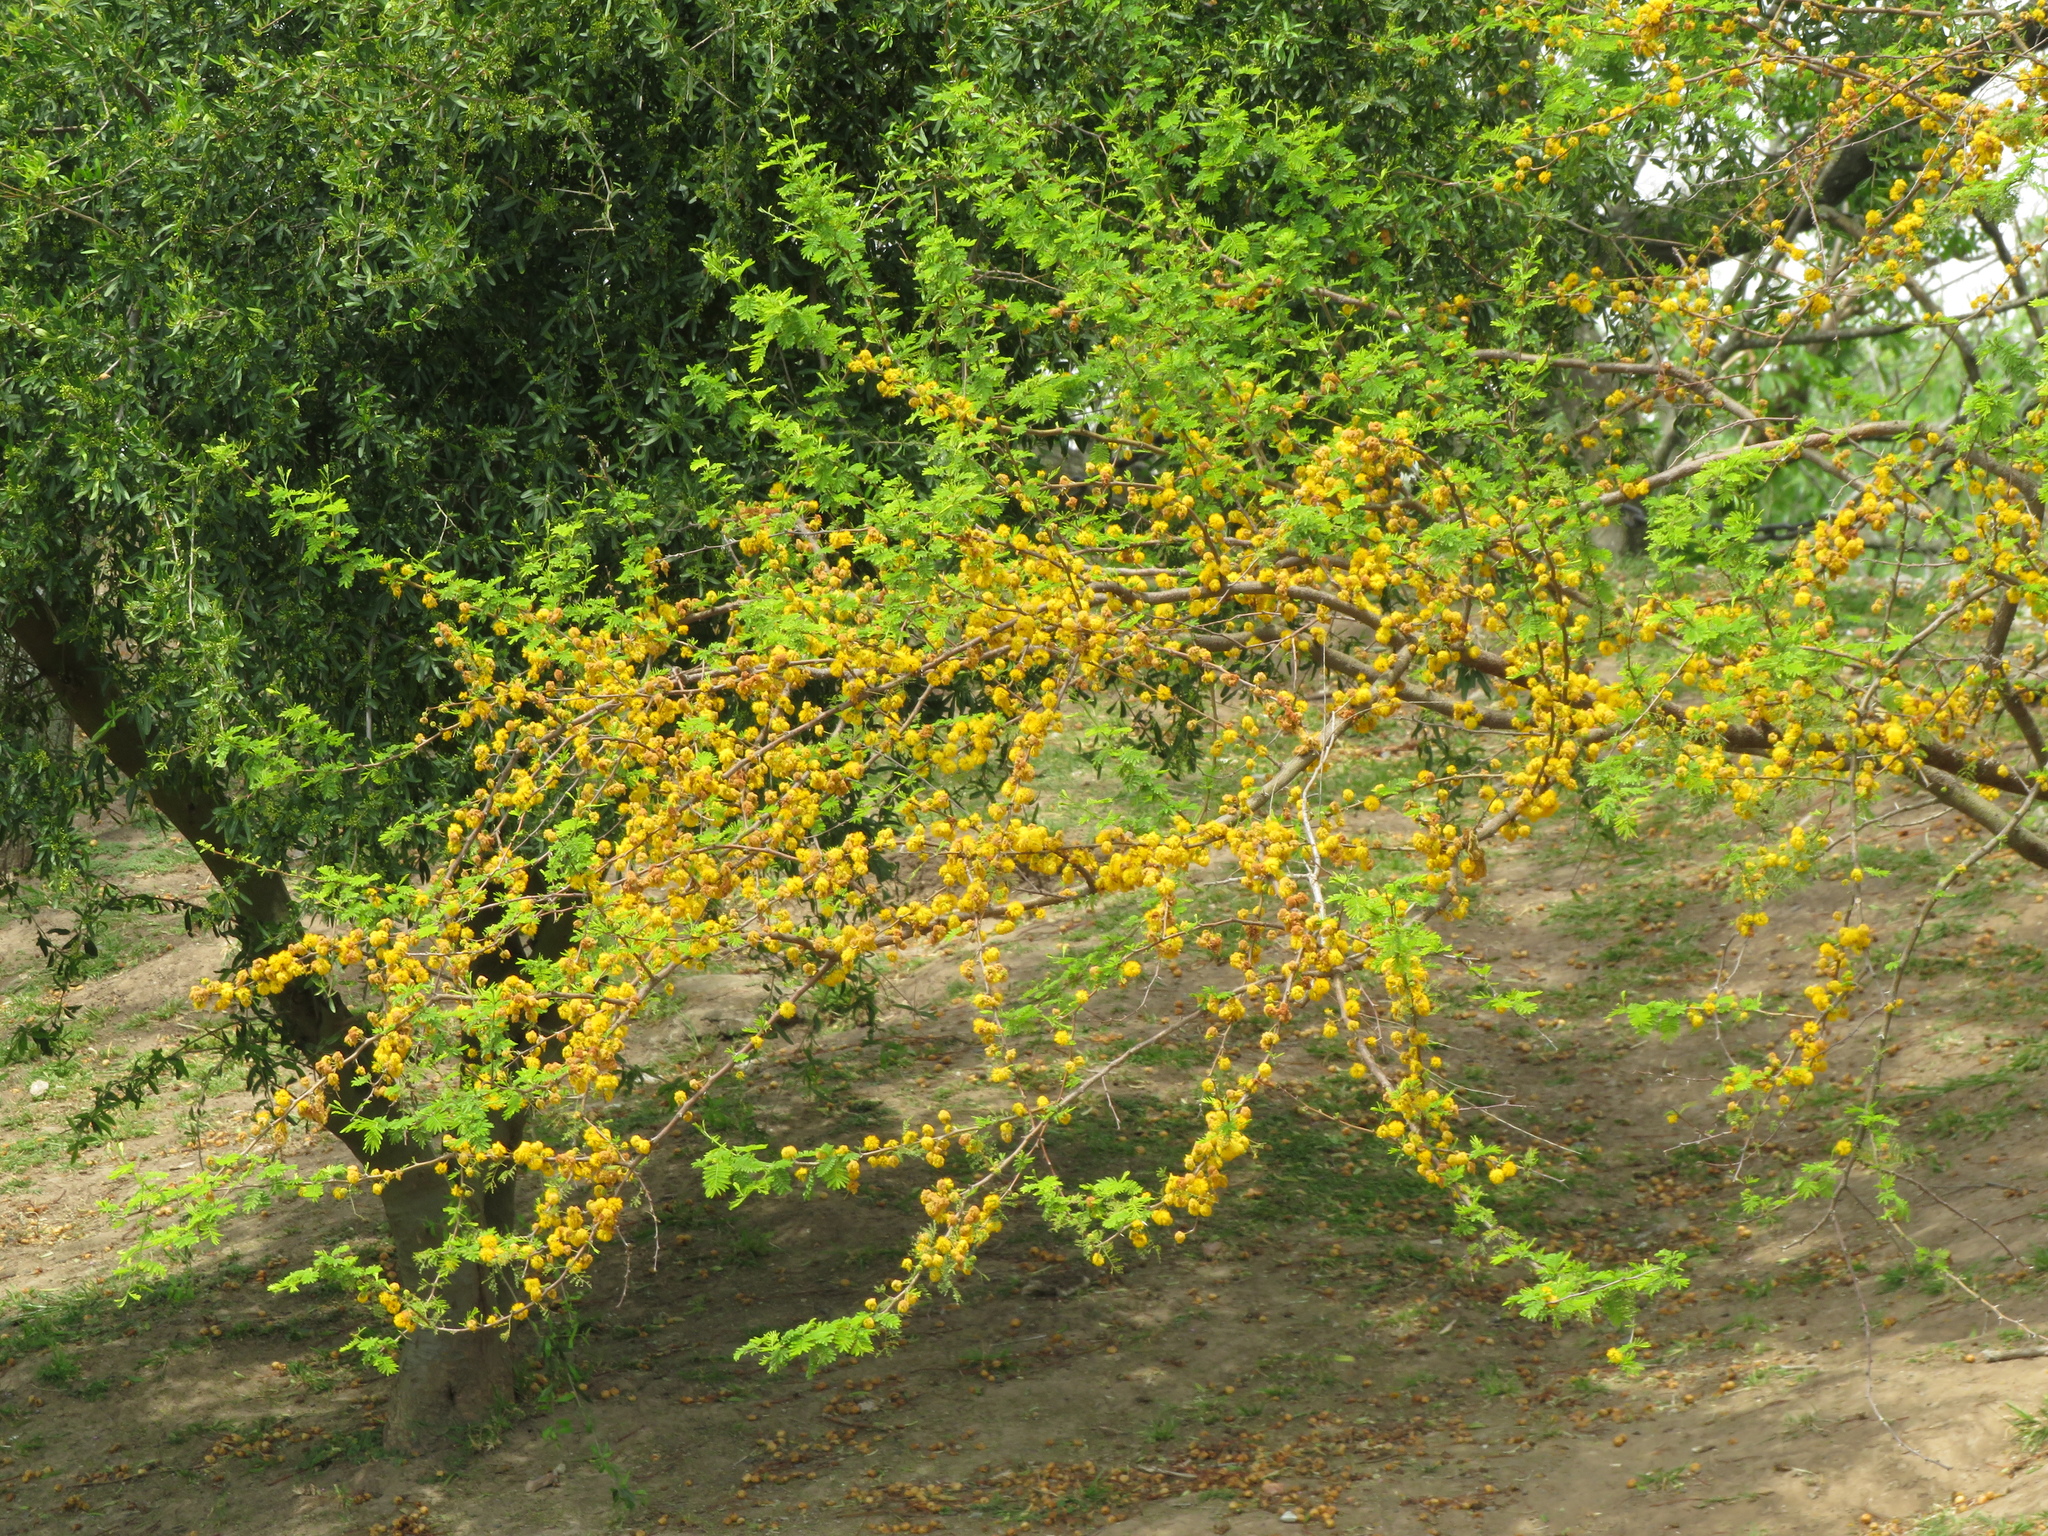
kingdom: Plantae
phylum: Tracheophyta
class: Magnoliopsida
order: Fabales
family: Fabaceae
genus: Vachellia
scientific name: Vachellia caven
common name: Roman cassie
